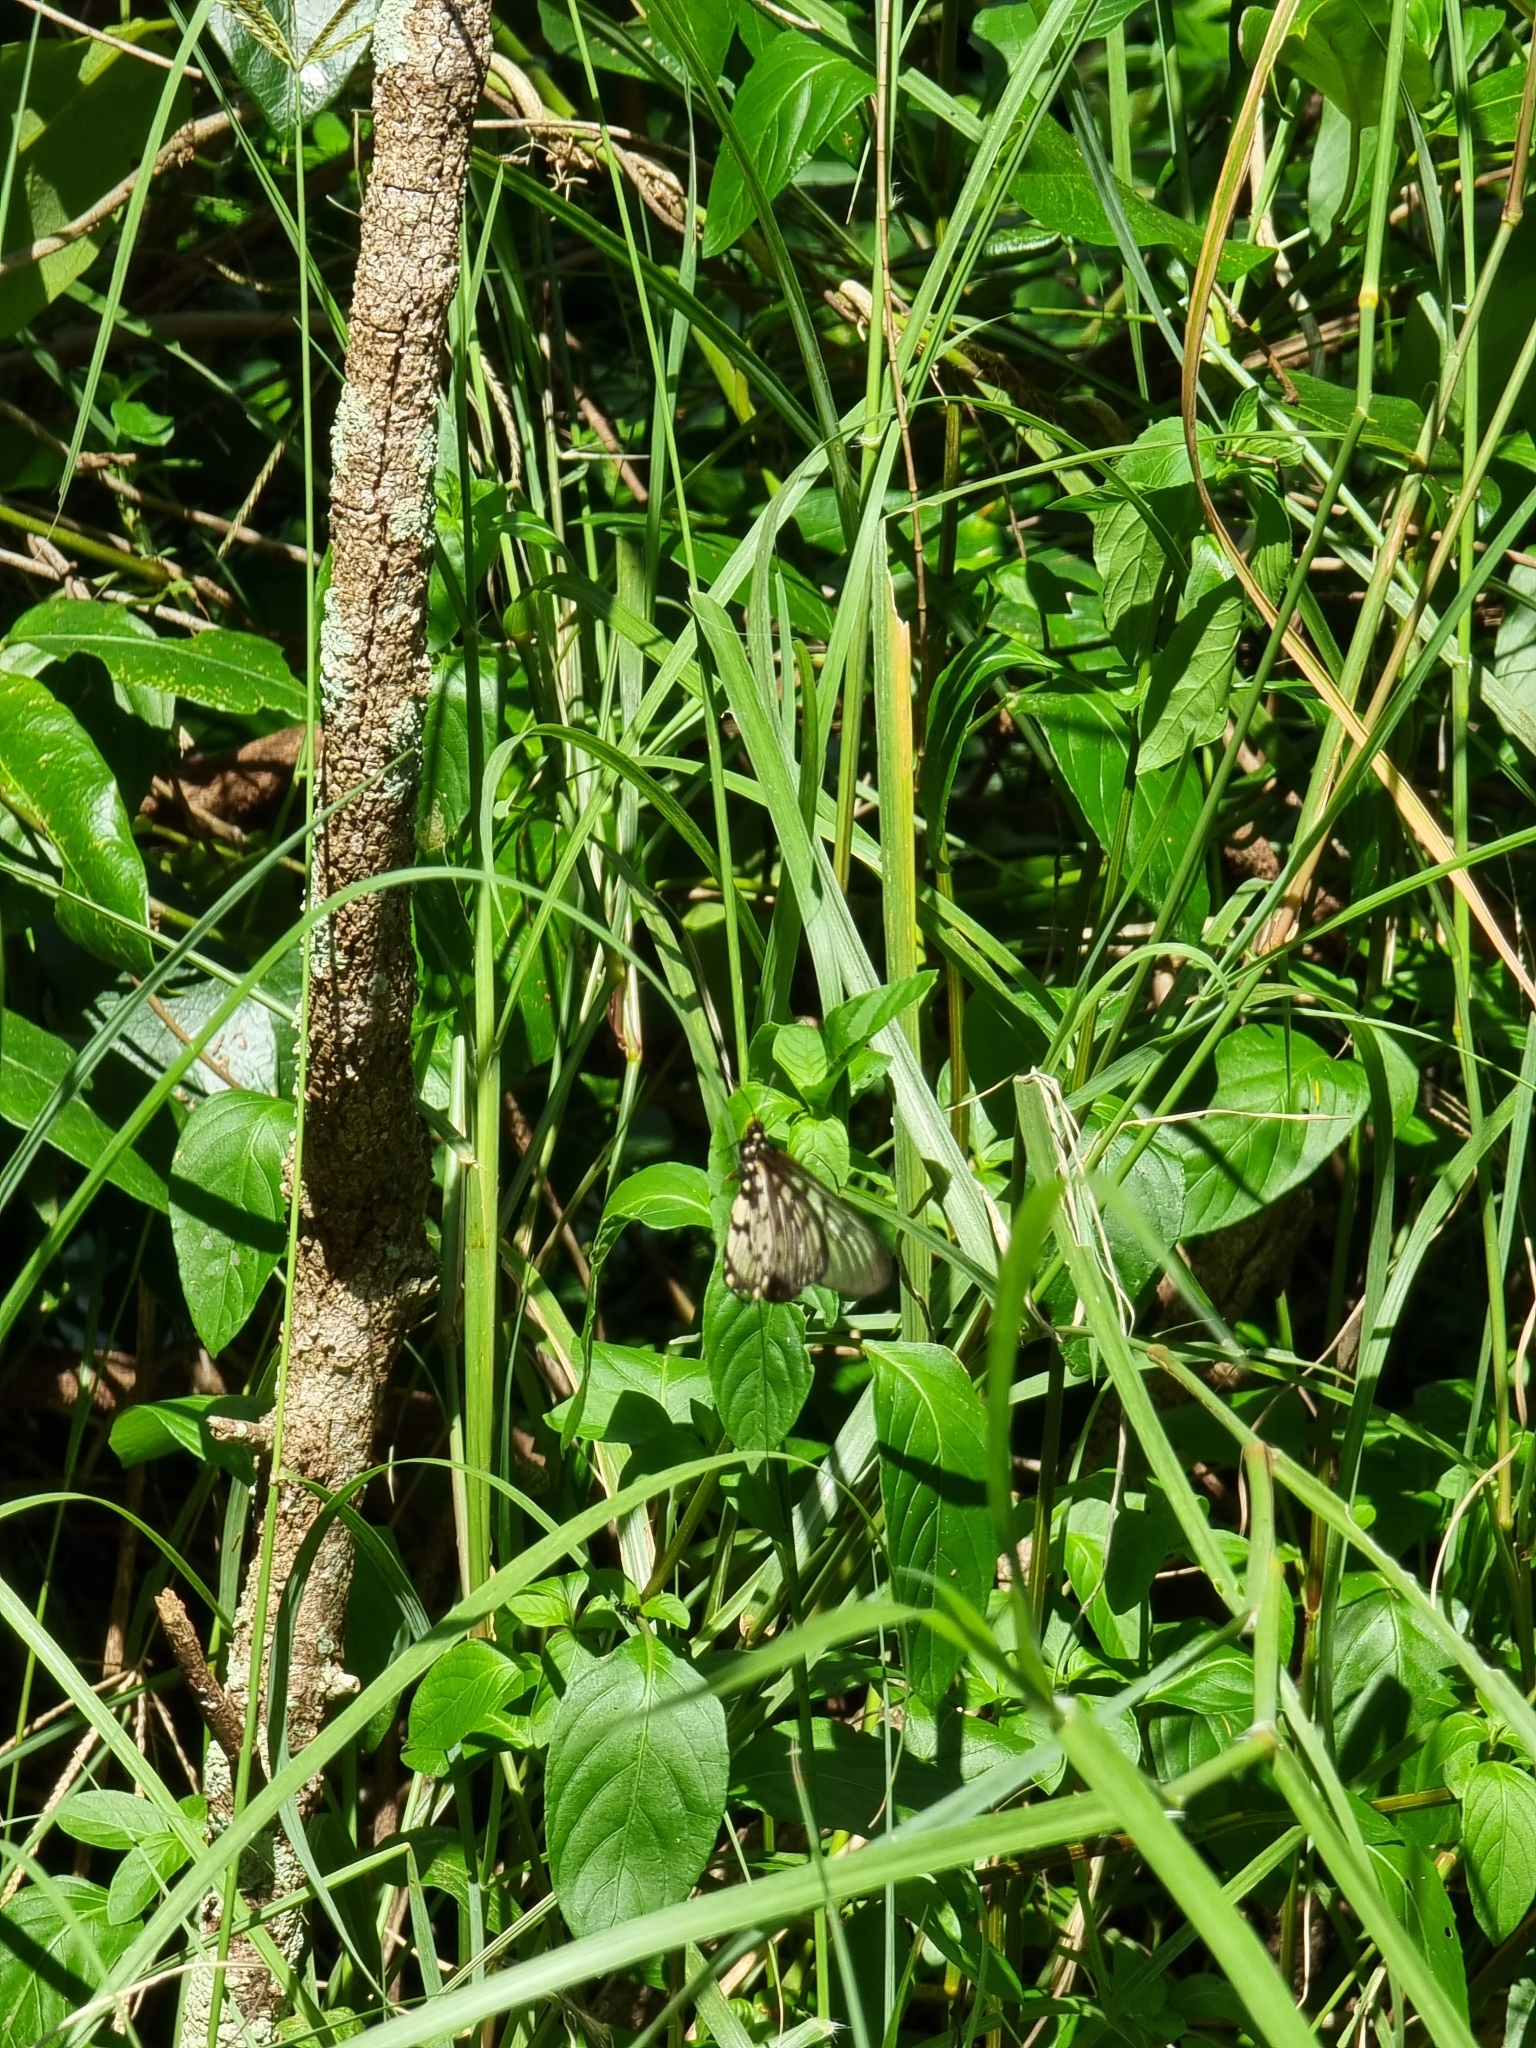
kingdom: Animalia
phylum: Arthropoda
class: Insecta
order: Lepidoptera
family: Nymphalidae
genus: Acraea
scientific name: Acraea andromacha
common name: Glasswing
